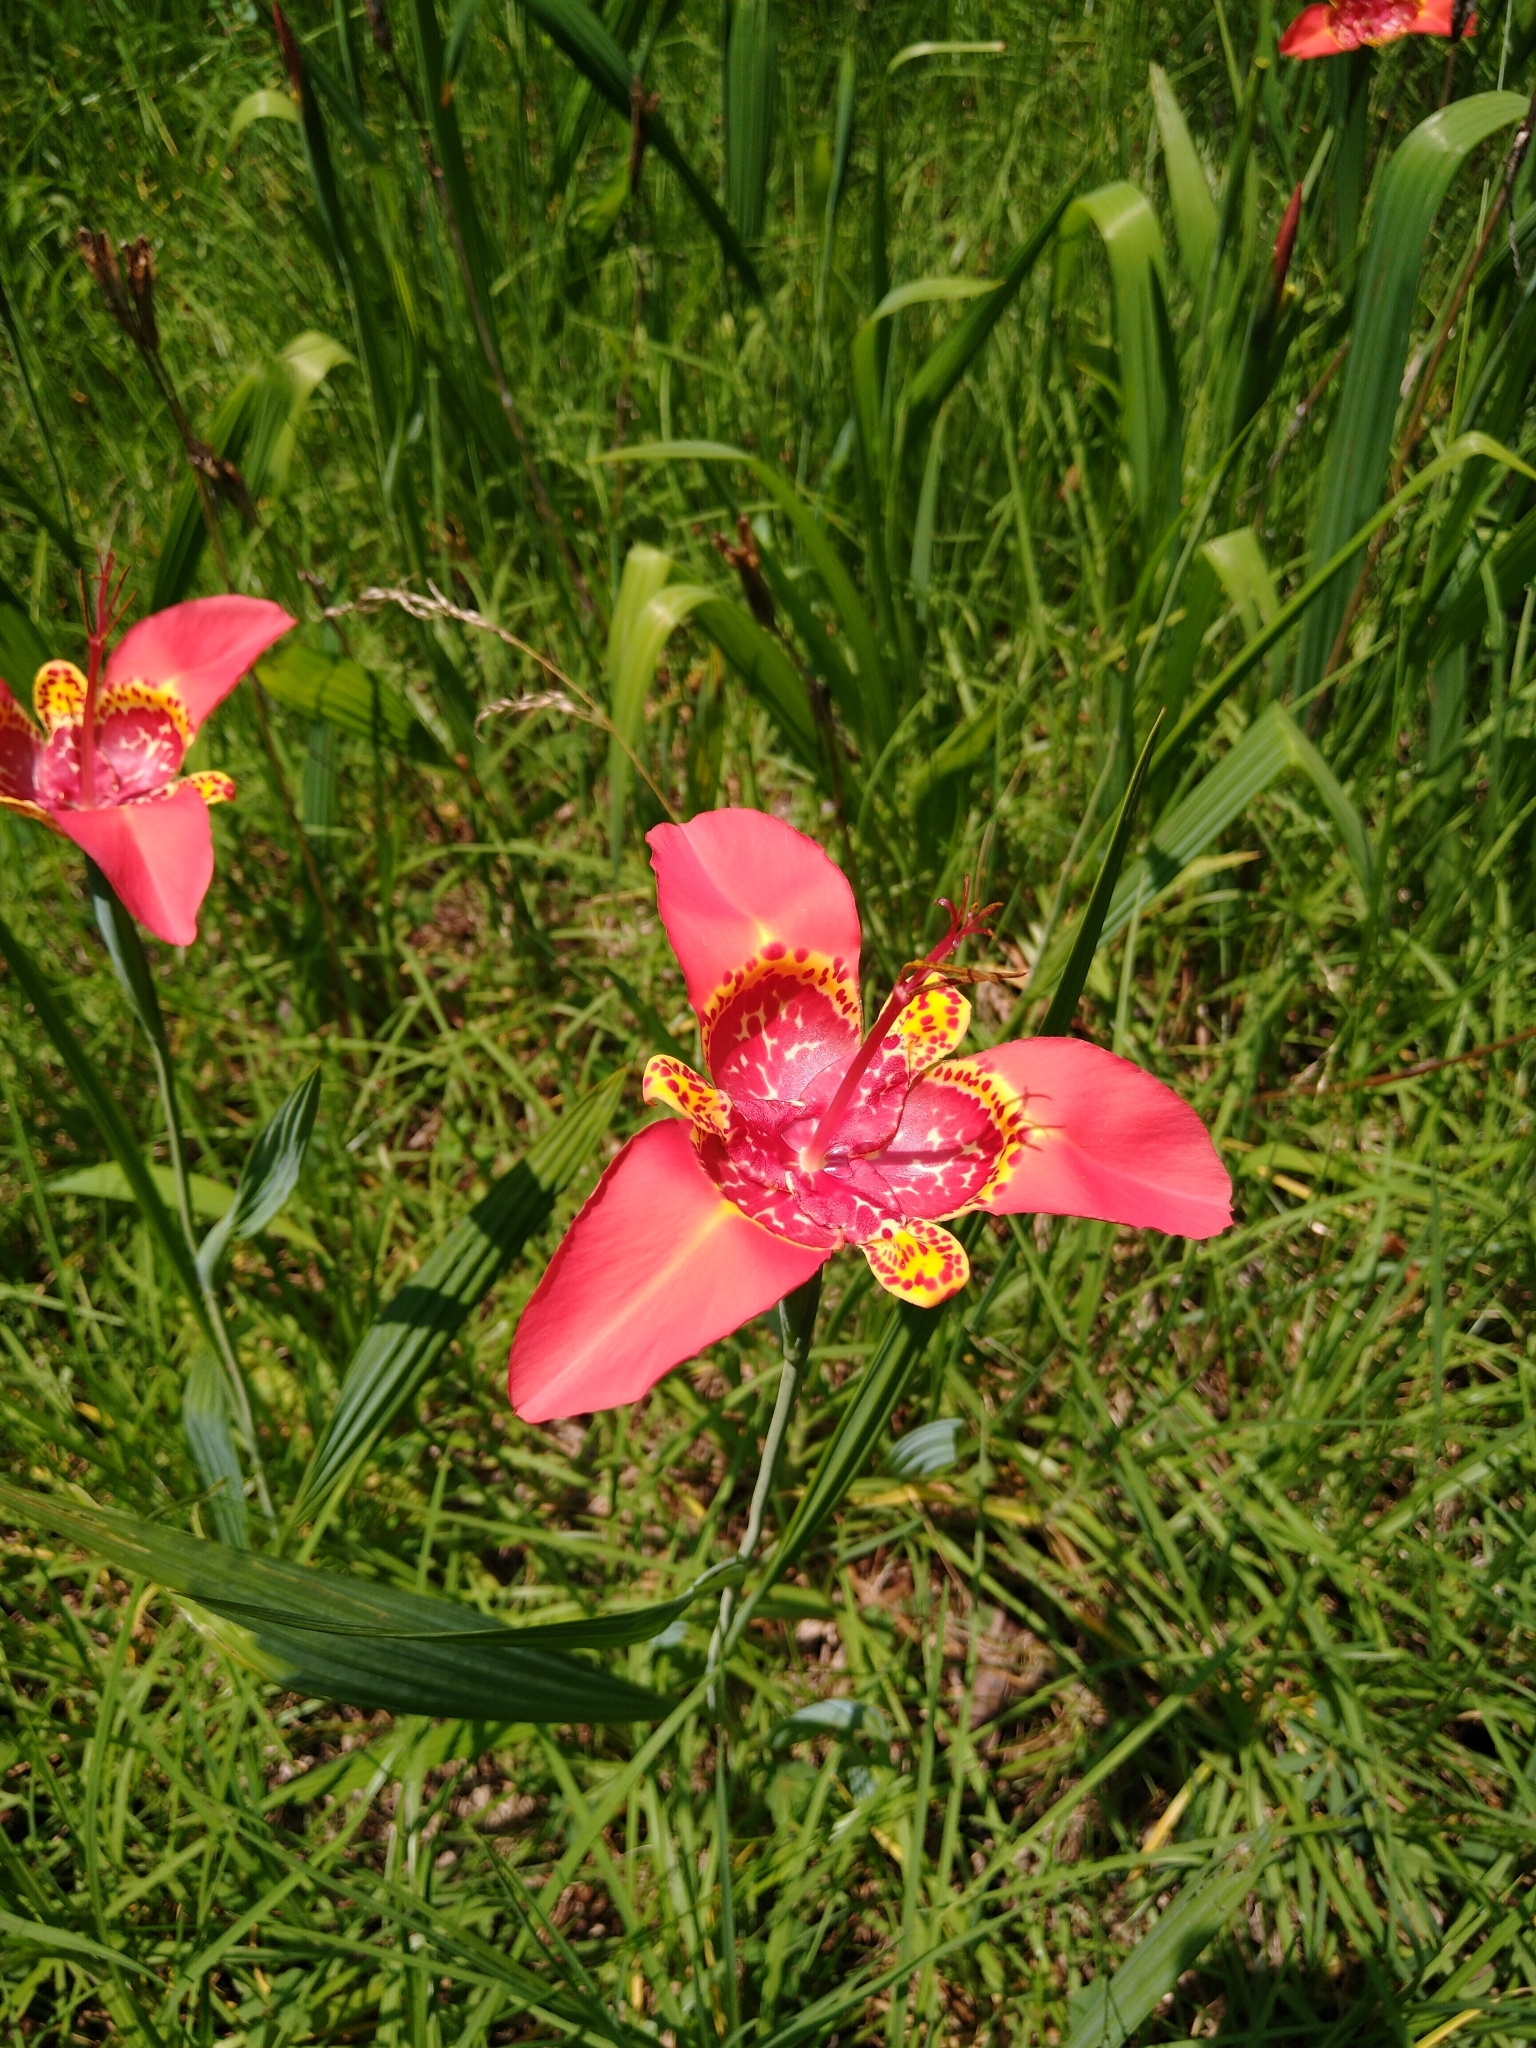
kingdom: Plantae
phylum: Tracheophyta
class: Liliopsida
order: Asparagales
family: Iridaceae
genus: Tigridia
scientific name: Tigridia pavonia
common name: Peacock-flower
